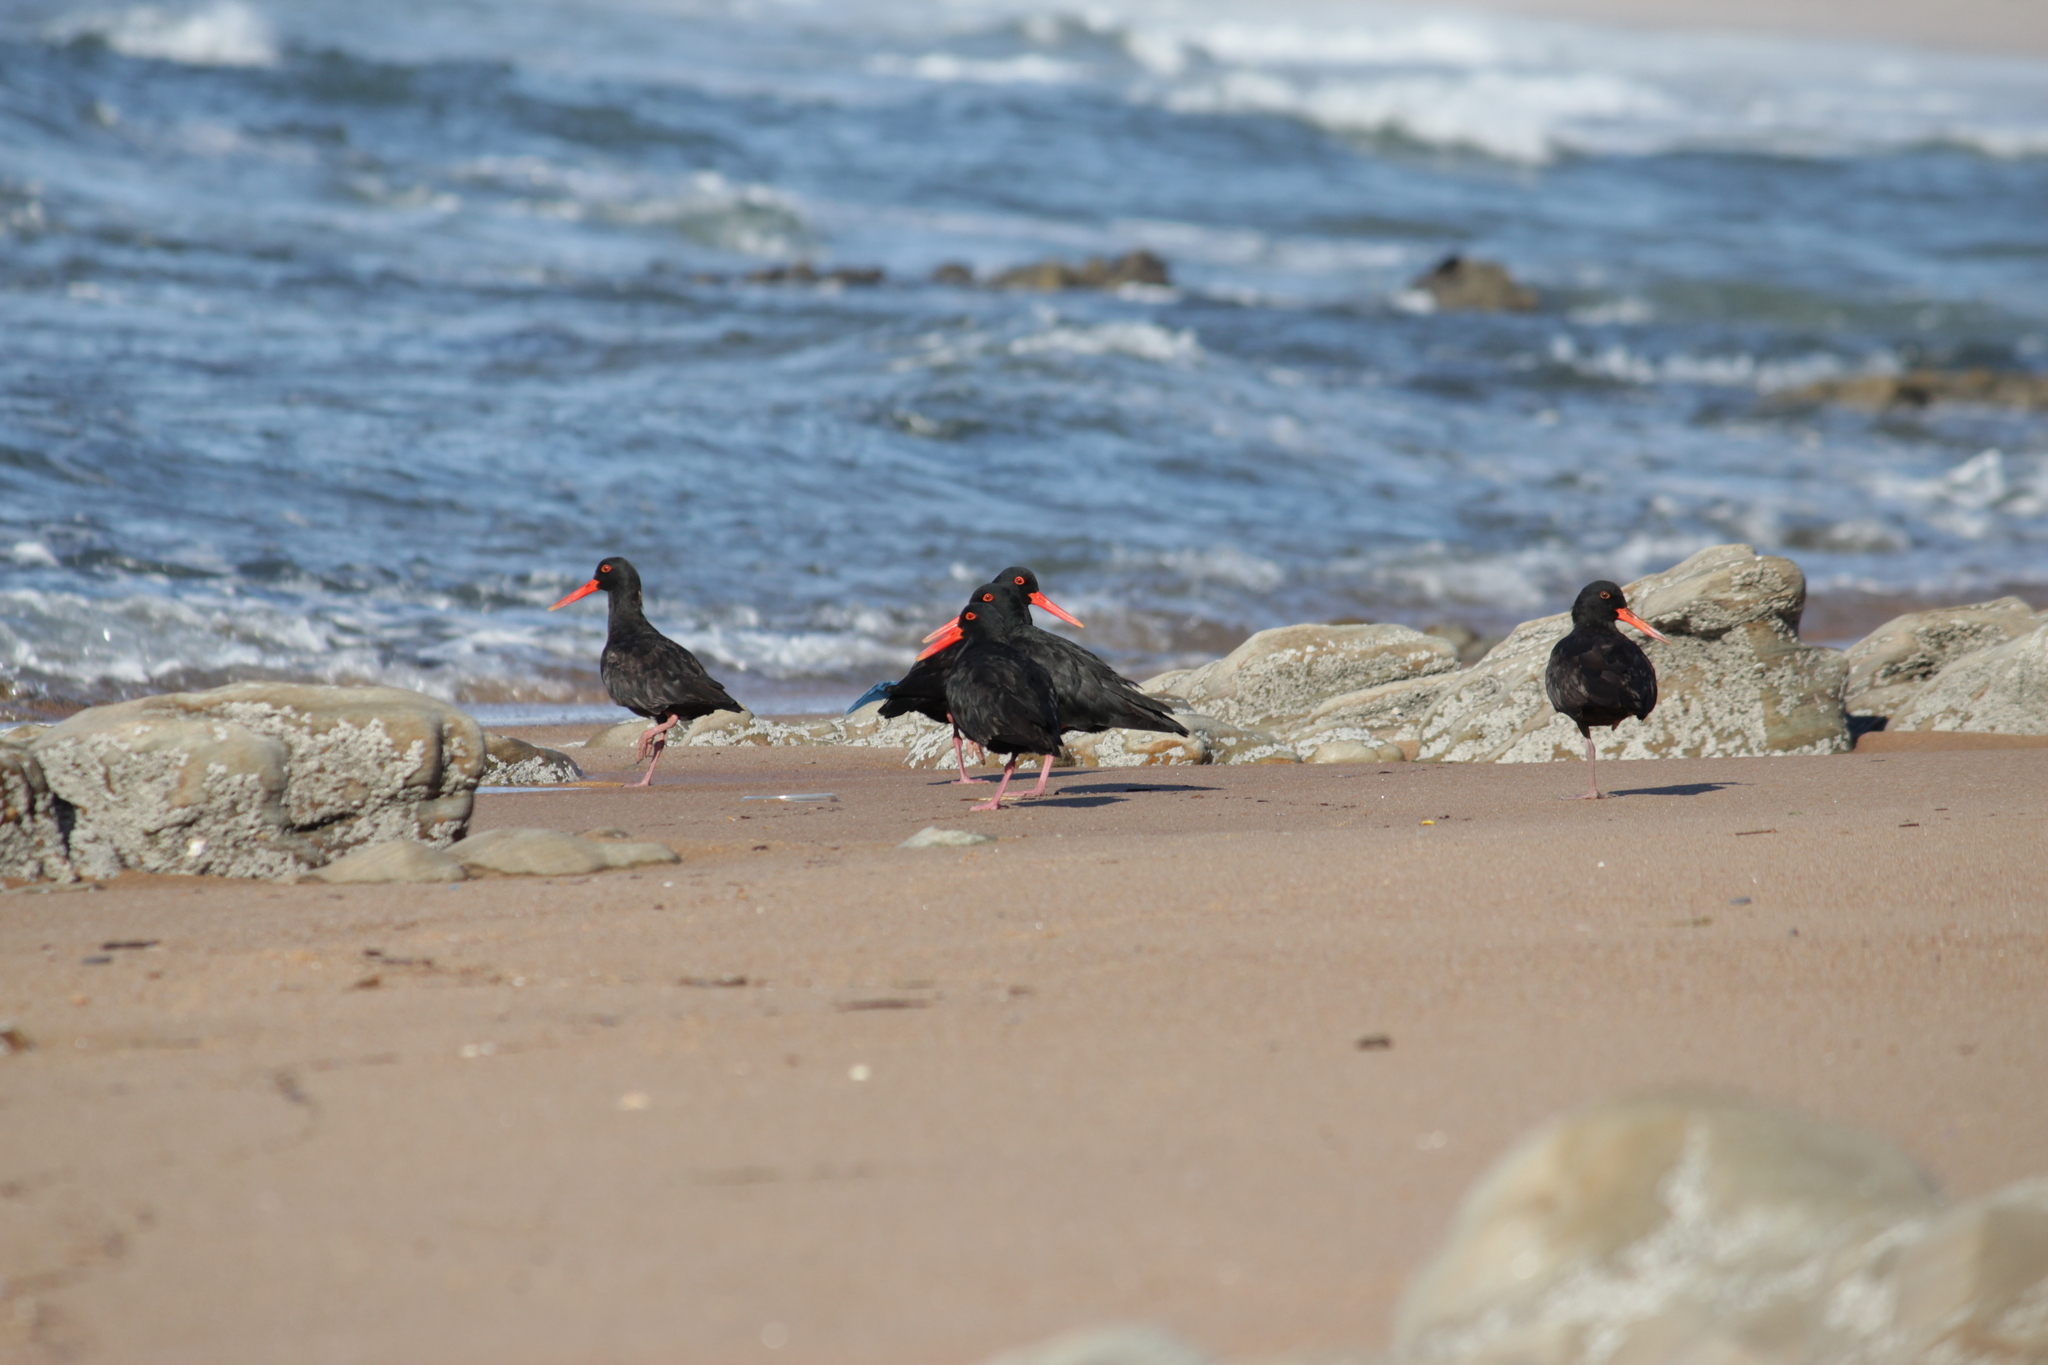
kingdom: Animalia
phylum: Chordata
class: Aves
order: Charadriiformes
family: Haematopodidae
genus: Haematopus
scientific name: Haematopus moquini
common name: African oystercatcher
